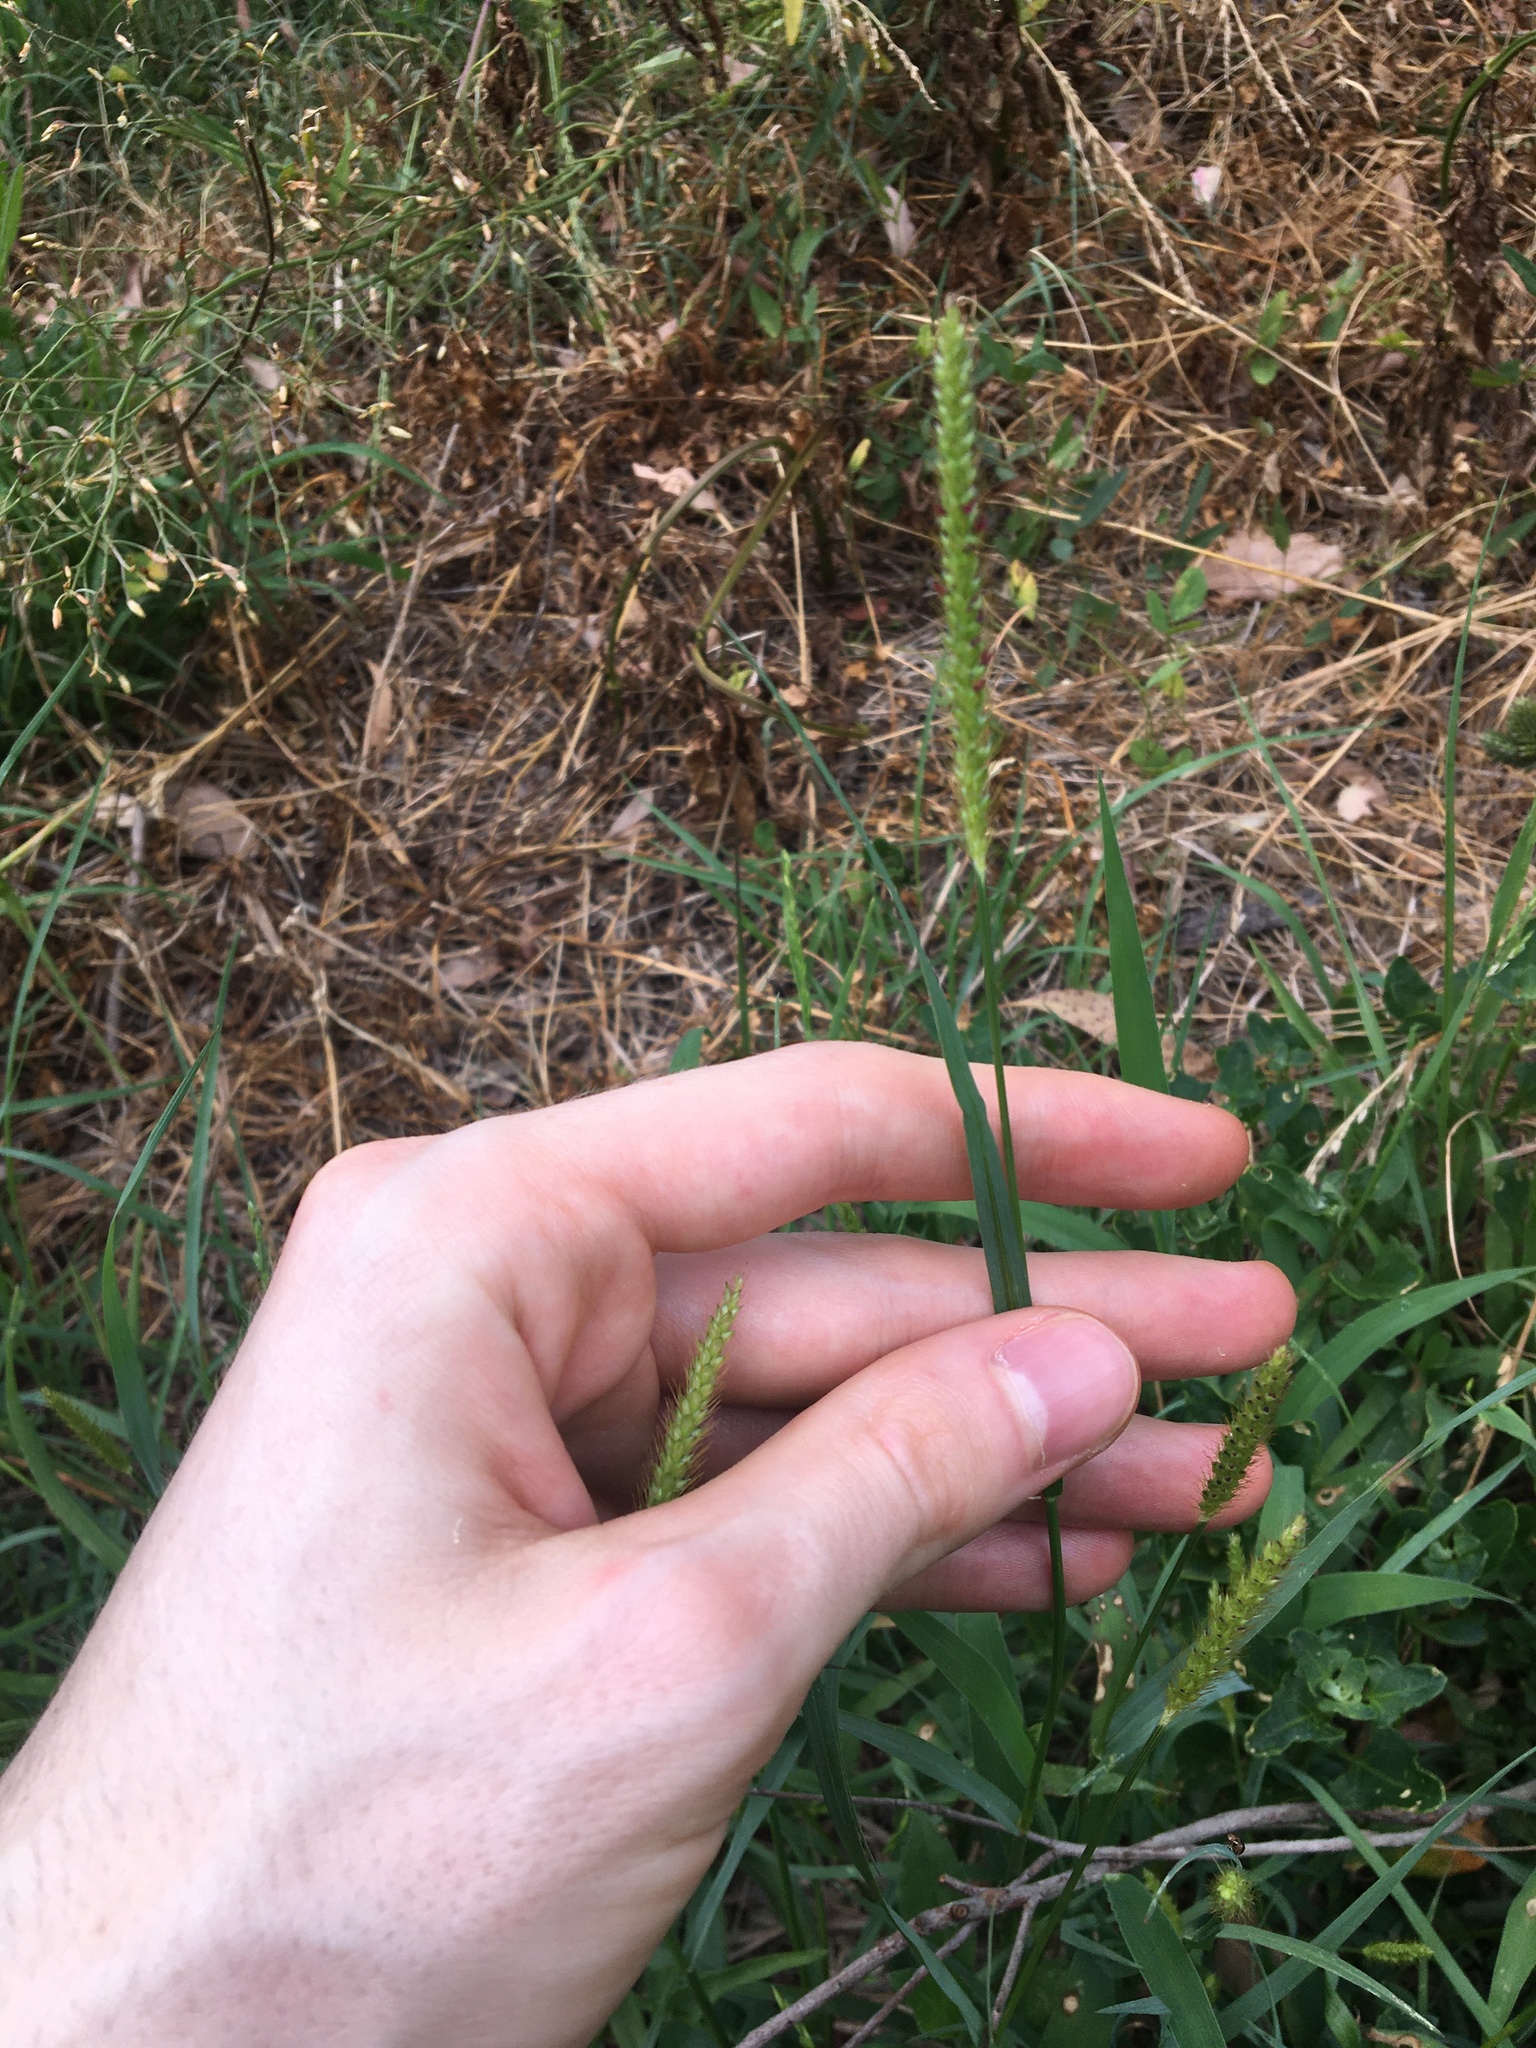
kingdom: Plantae
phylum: Tracheophyta
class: Liliopsida
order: Poales
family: Poaceae
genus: Setaria
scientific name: Setaria parviflora
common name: Knotroot bristle-grass
